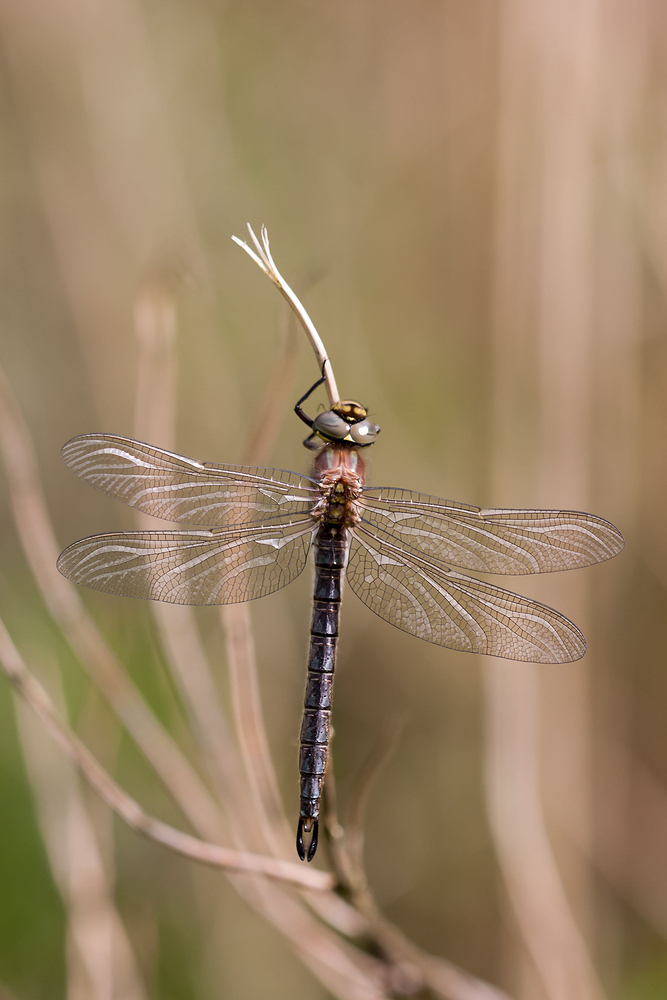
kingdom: Animalia
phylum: Arthropoda
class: Insecta
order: Odonata
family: Aeshnidae
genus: Brachytron
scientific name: Brachytron pratense
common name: Hairy hawker
